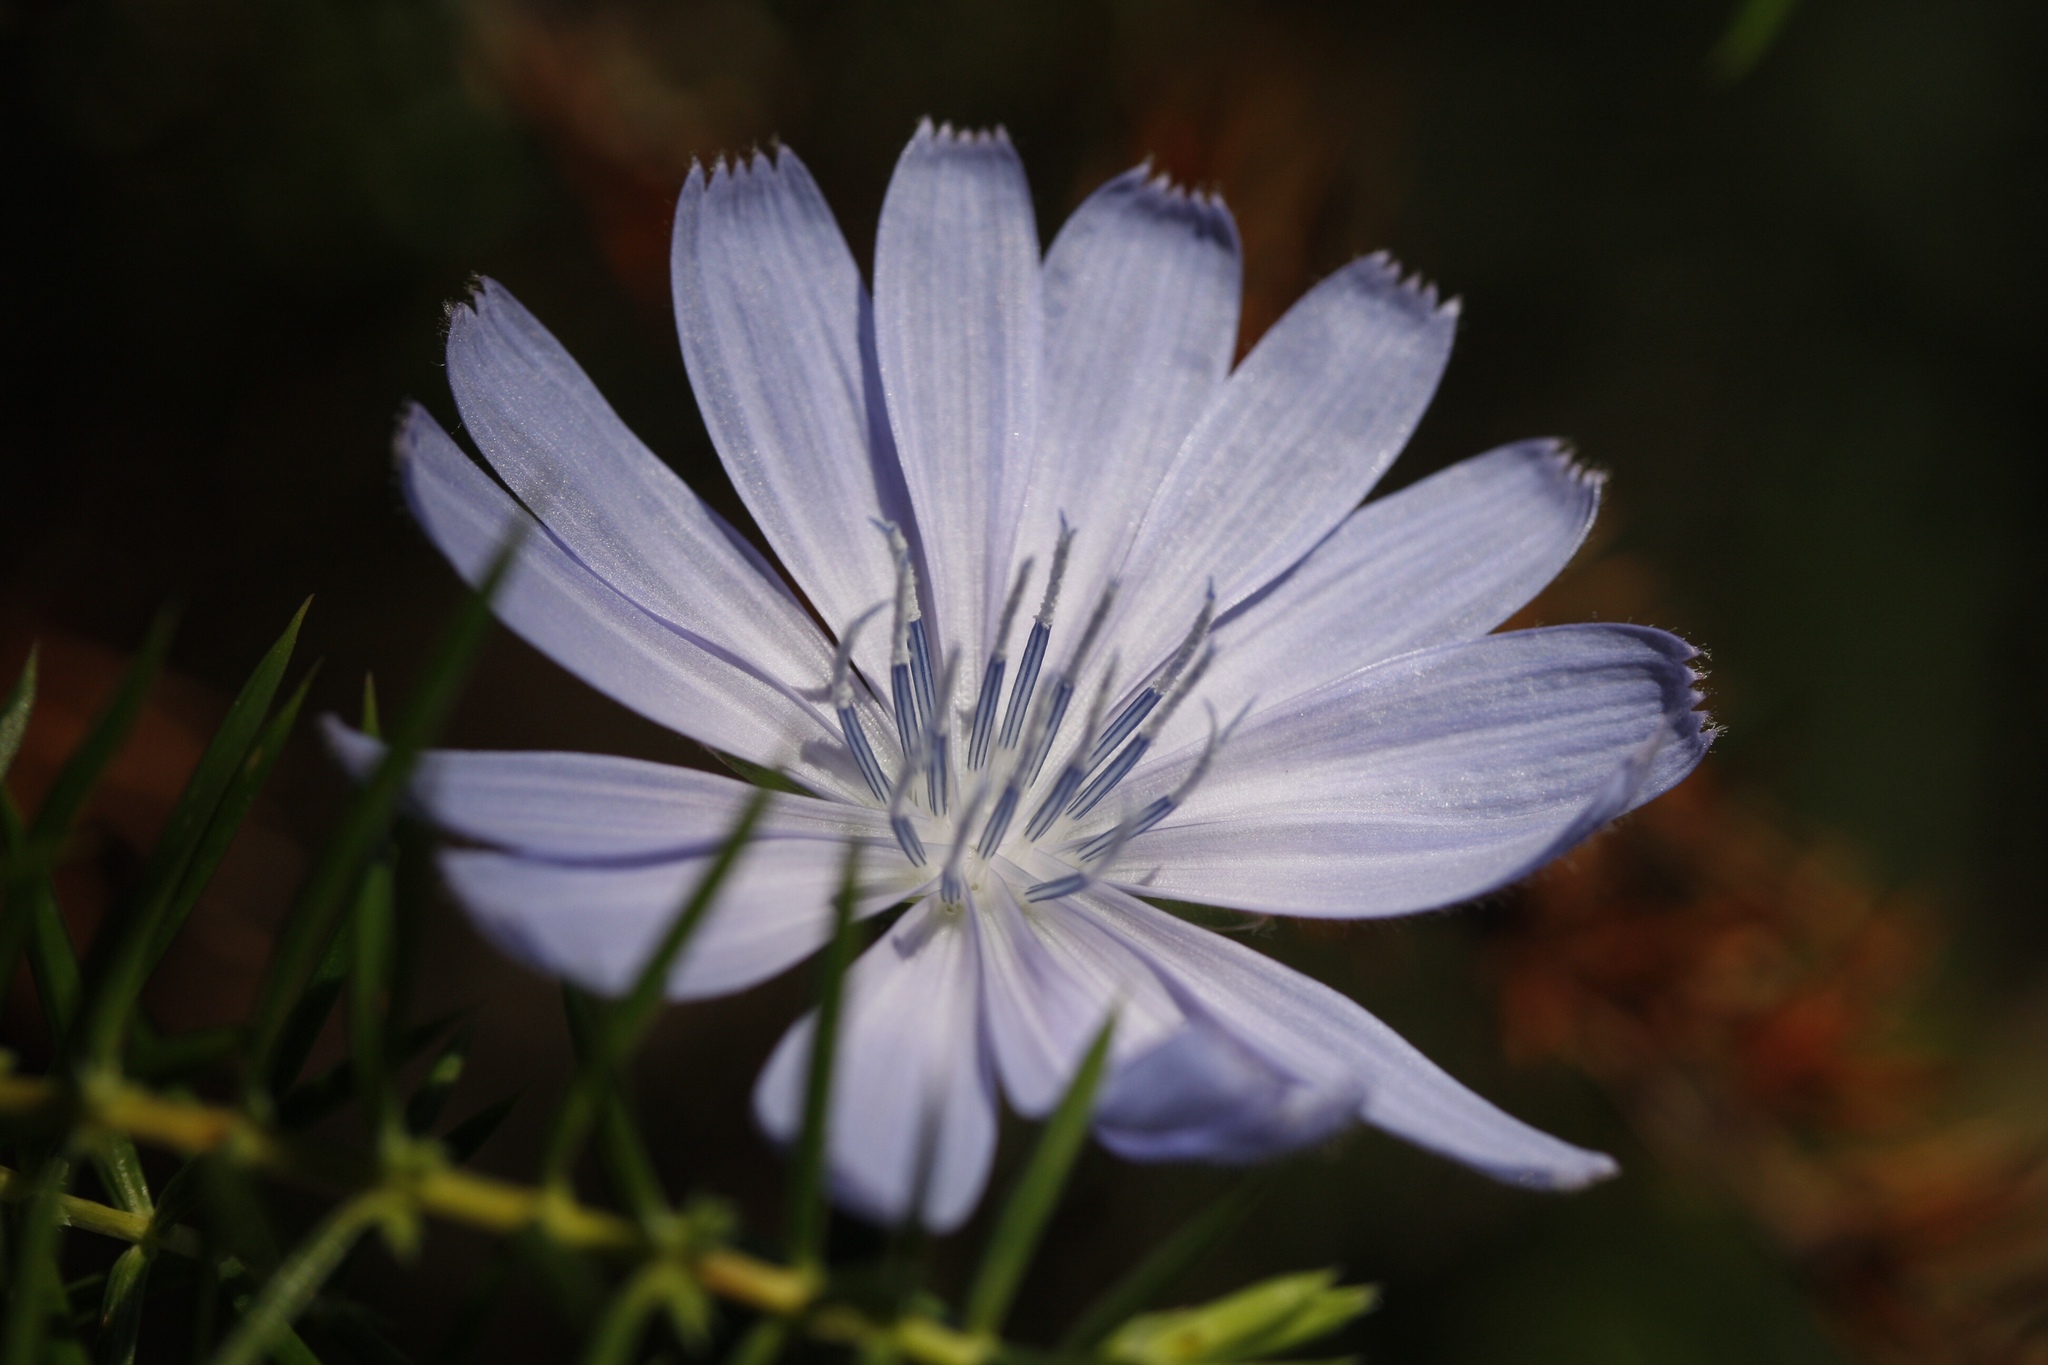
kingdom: Plantae
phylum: Tracheophyta
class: Magnoliopsida
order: Asterales
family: Asteraceae
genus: Cichorium
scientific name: Cichorium intybus
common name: Chicory
